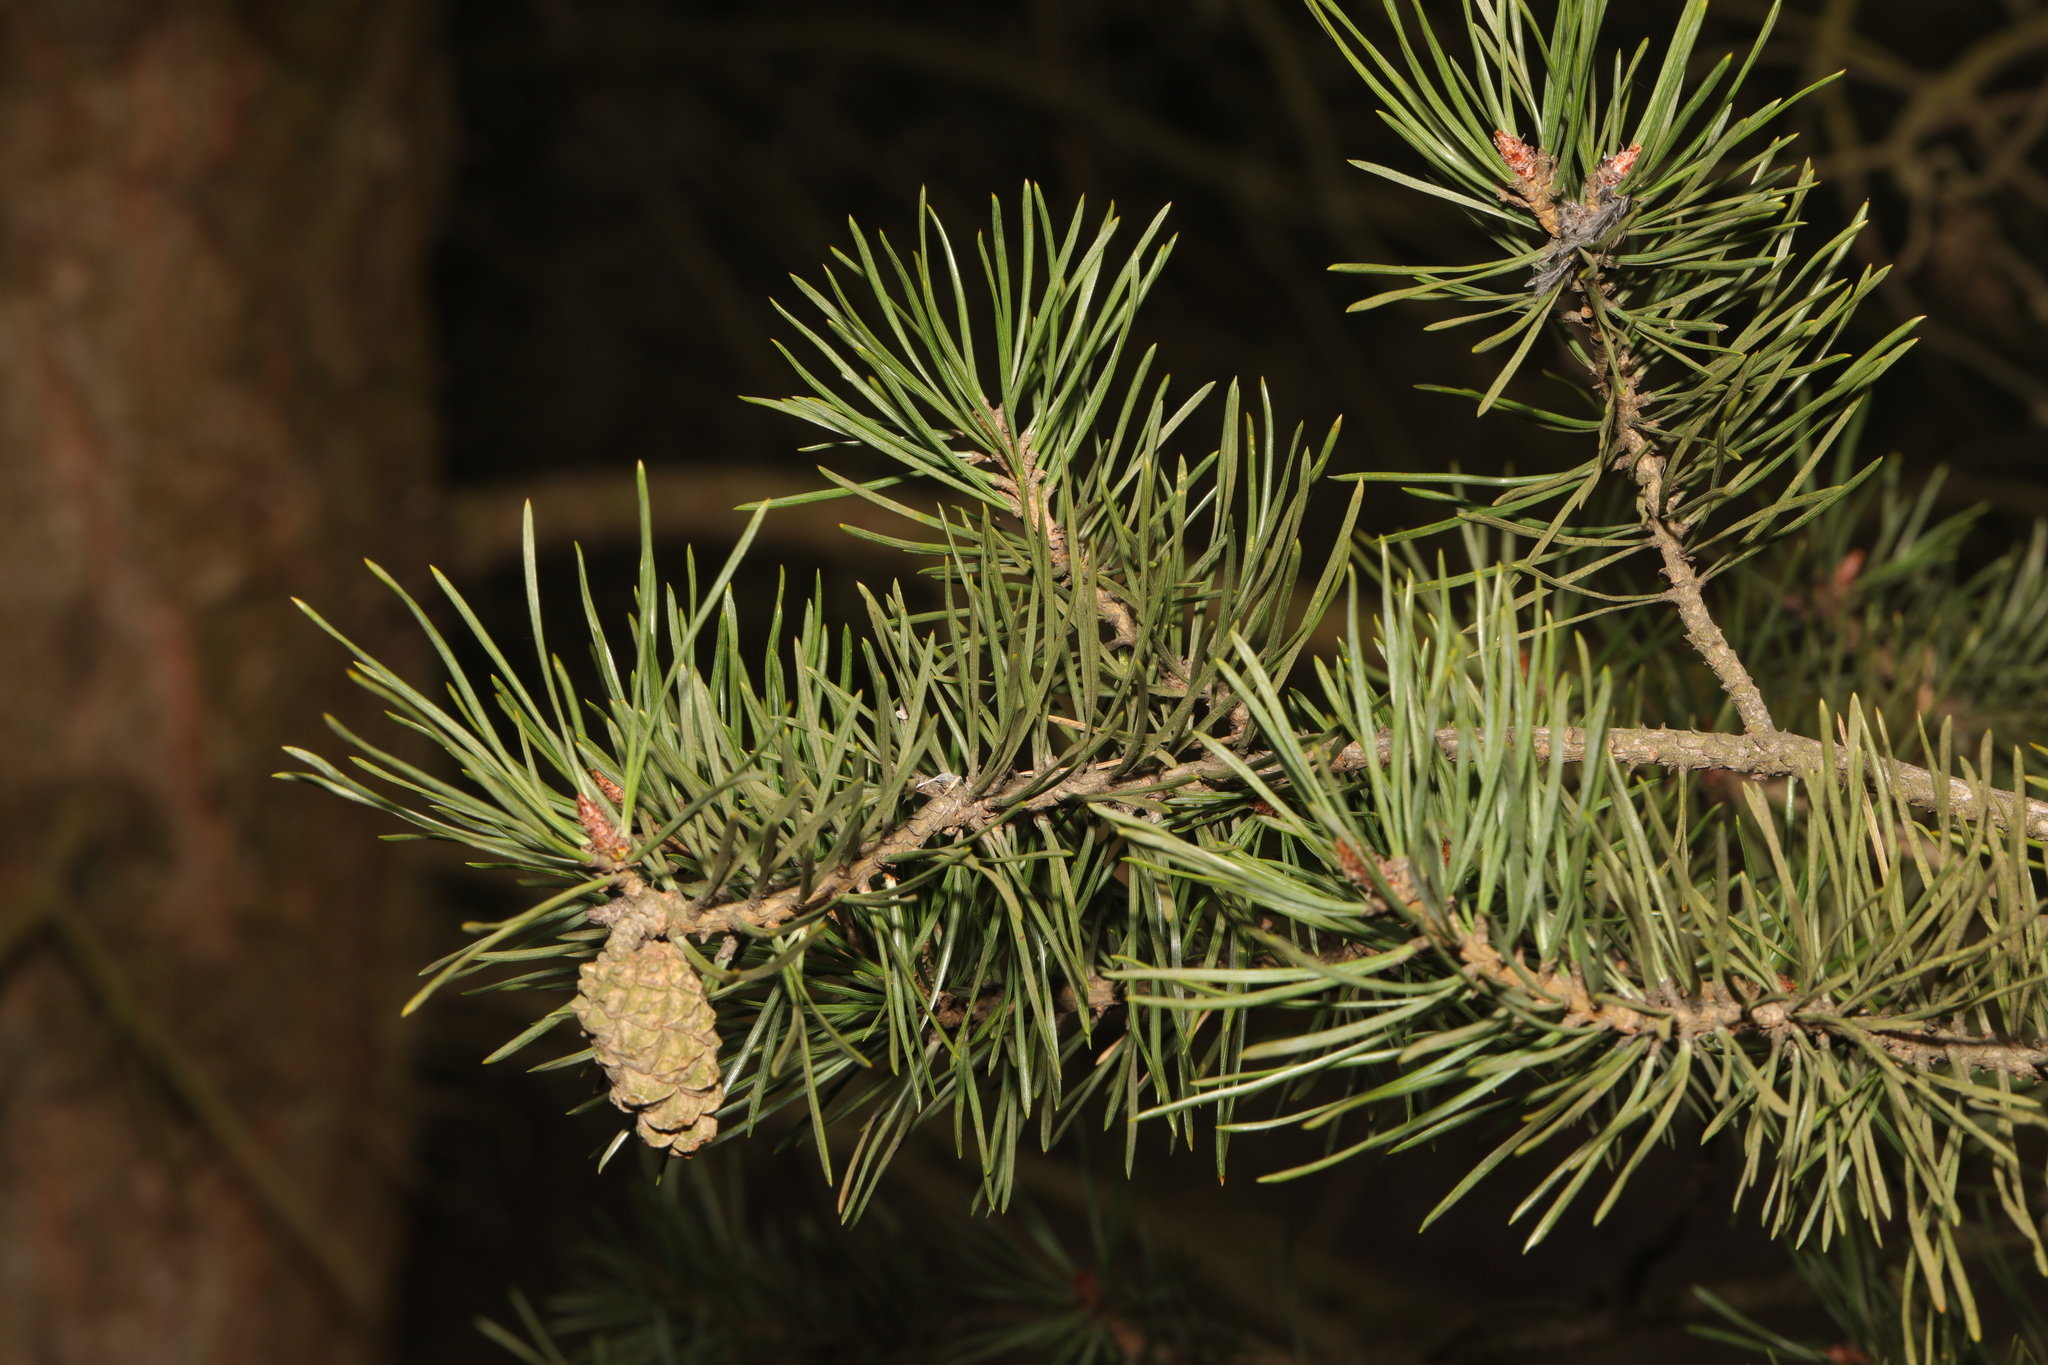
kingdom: Plantae
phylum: Tracheophyta
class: Pinopsida
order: Pinales
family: Pinaceae
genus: Pinus
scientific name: Pinus sylvestris
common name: Scots pine
